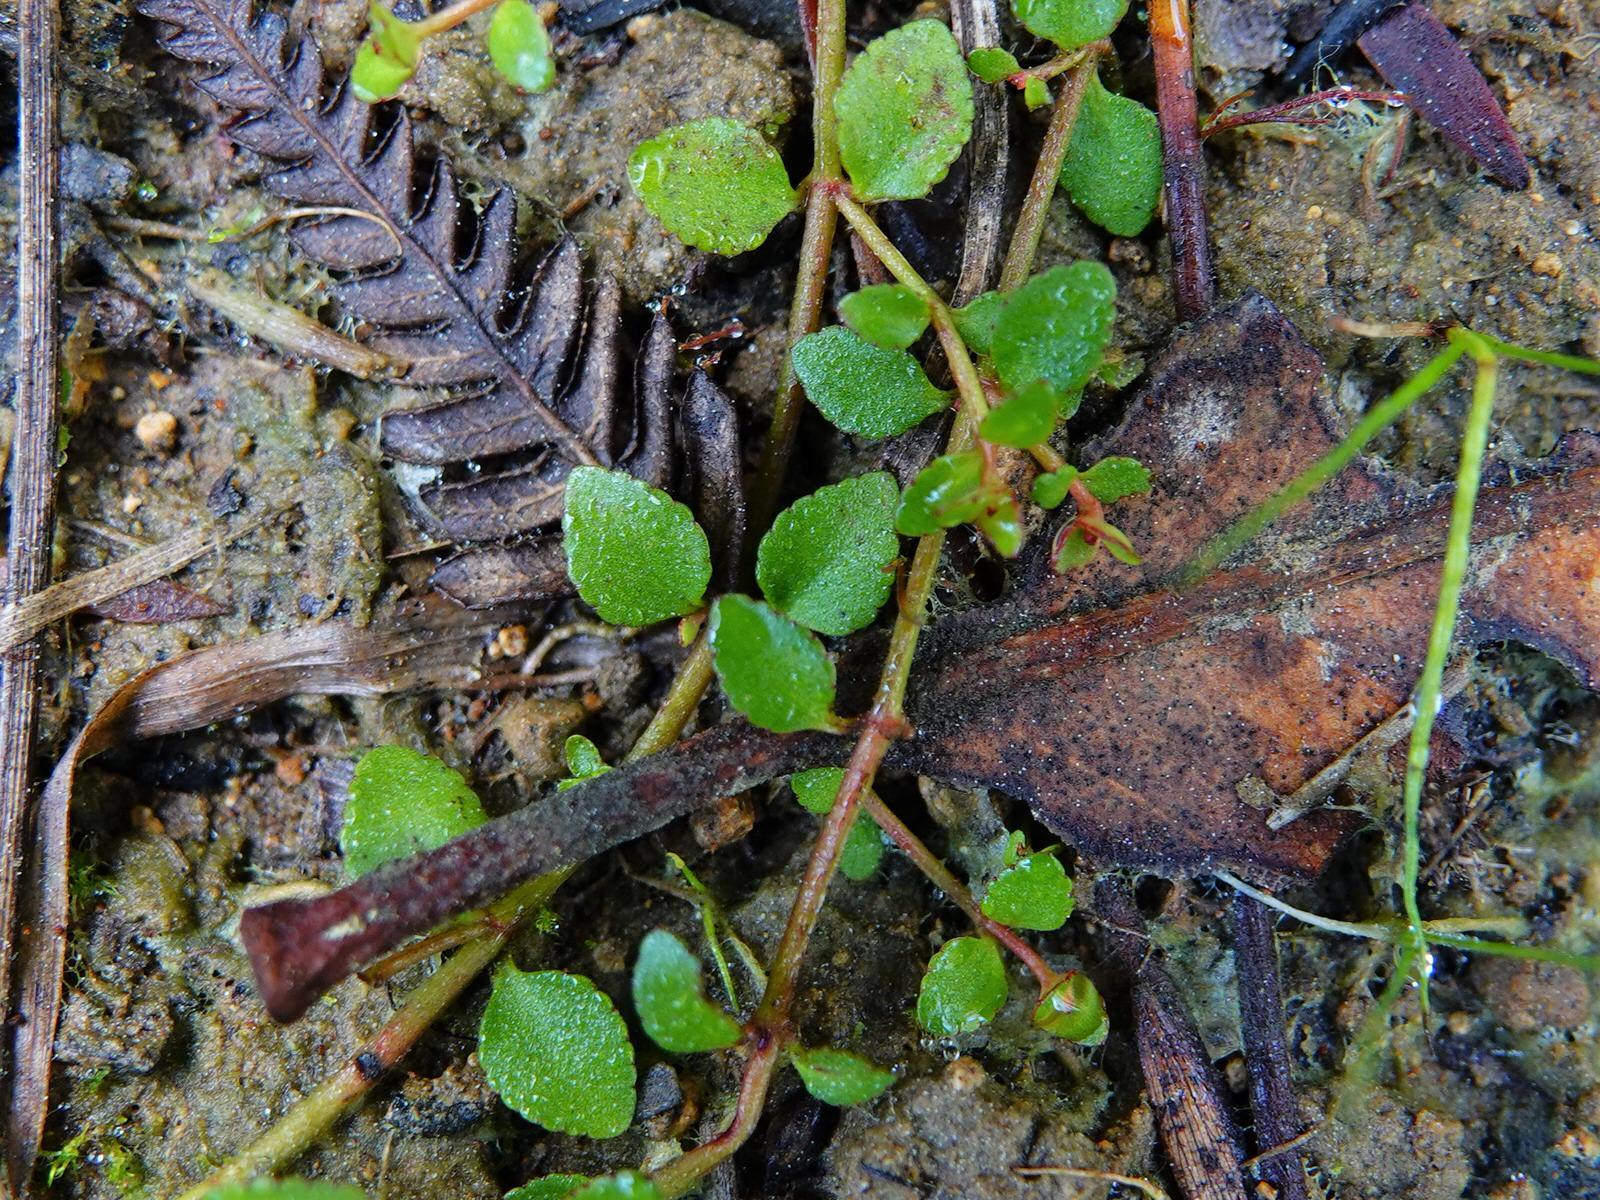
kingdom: Plantae
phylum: Tracheophyta
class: Magnoliopsida
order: Saxifragales
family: Haloragaceae
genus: Gonocarpus
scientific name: Gonocarpus micranthus
